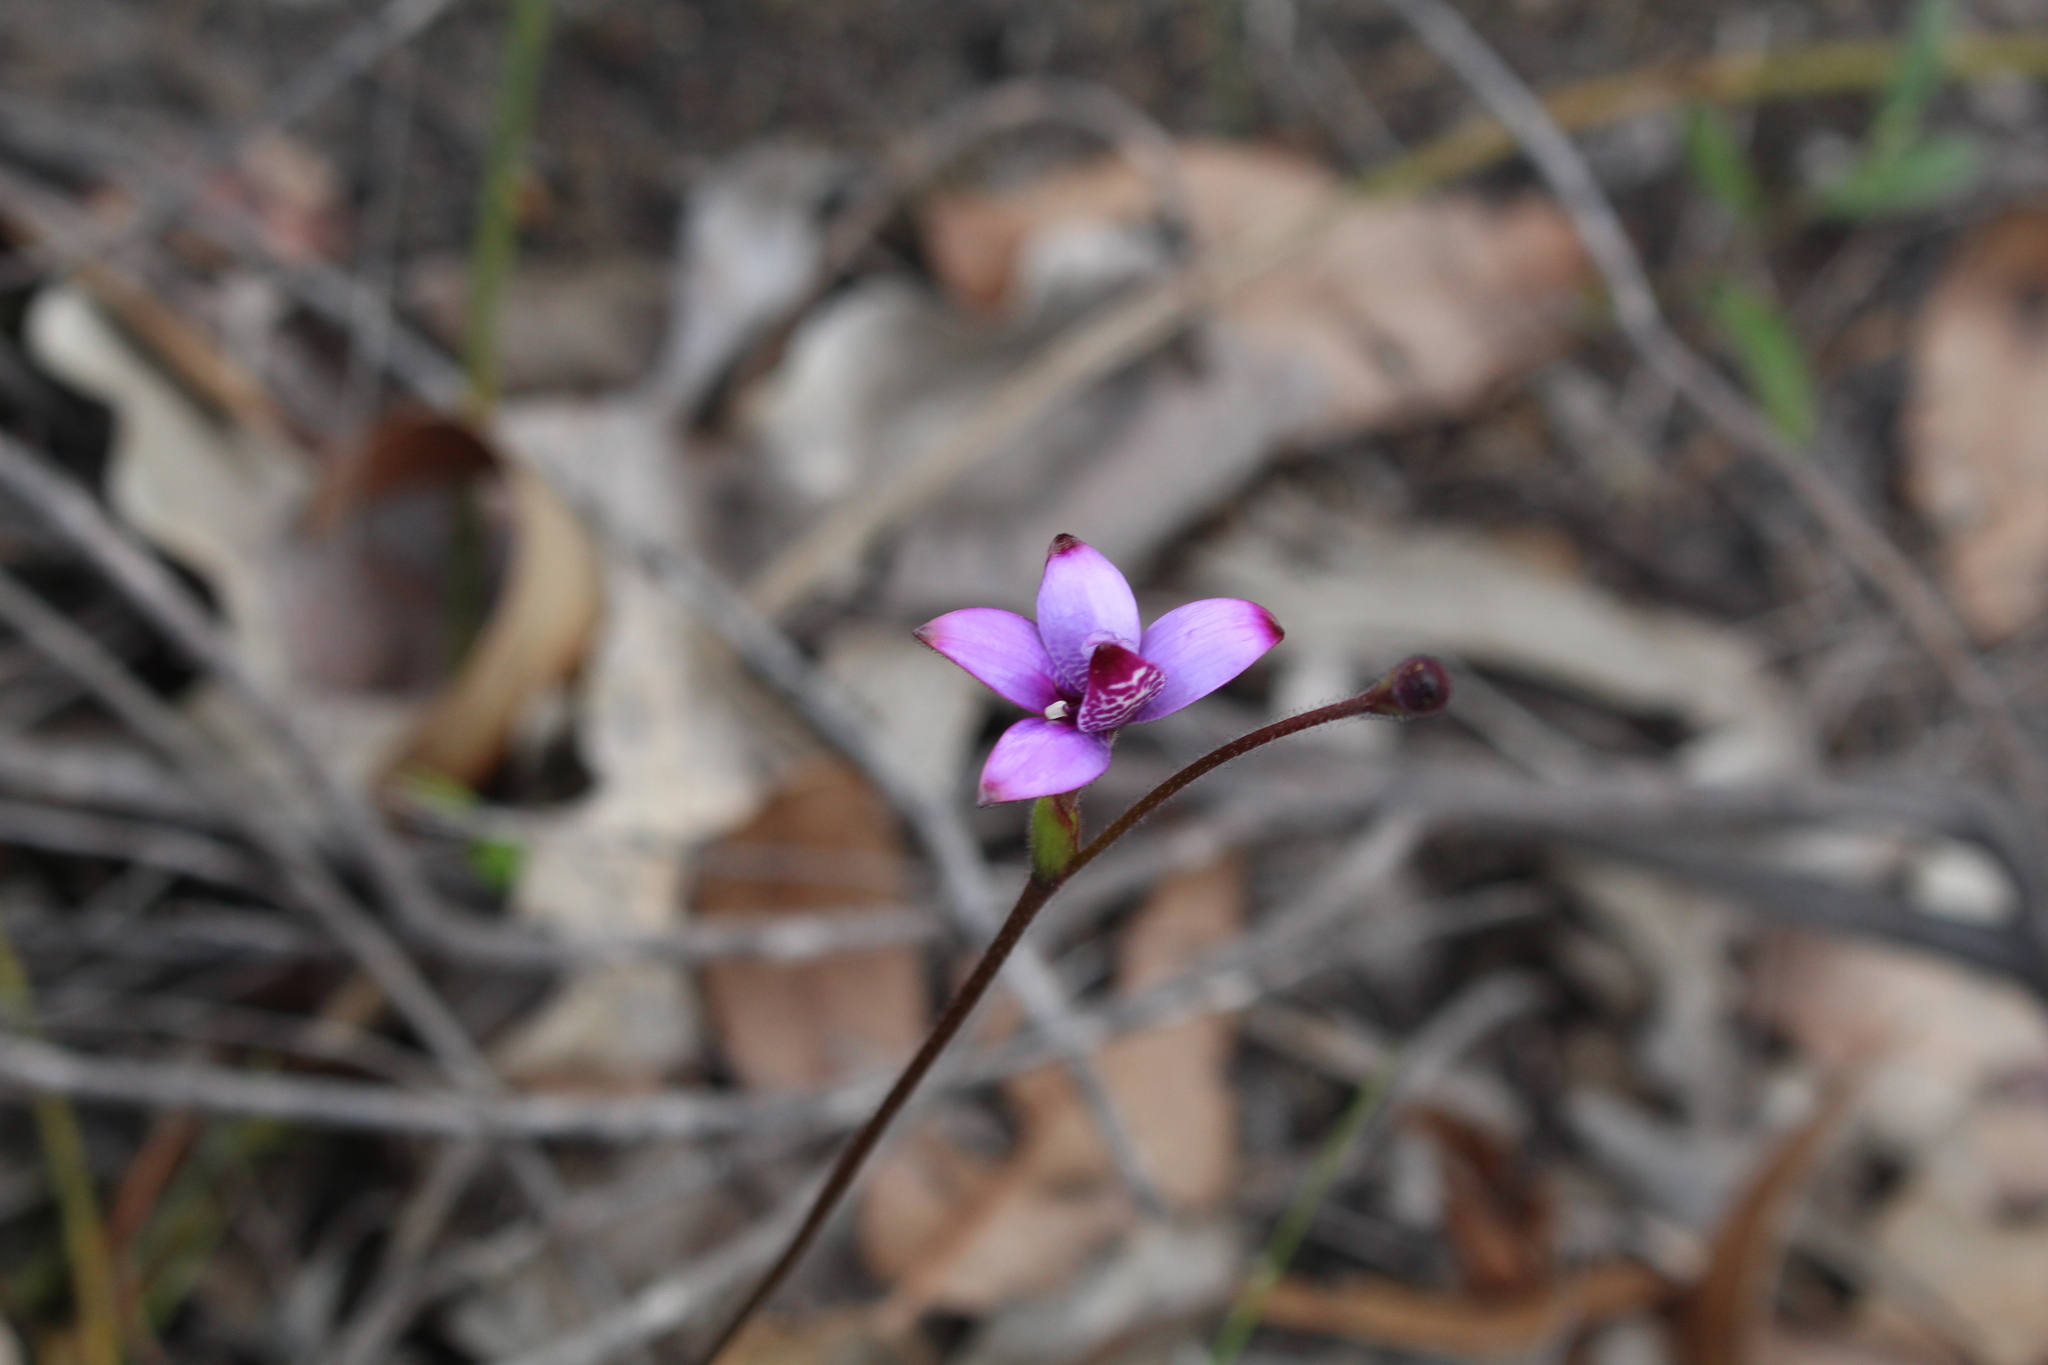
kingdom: Plantae
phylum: Tracheophyta
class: Liliopsida
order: Asparagales
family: Orchidaceae
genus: Caladenia
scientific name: Caladenia brunonis
